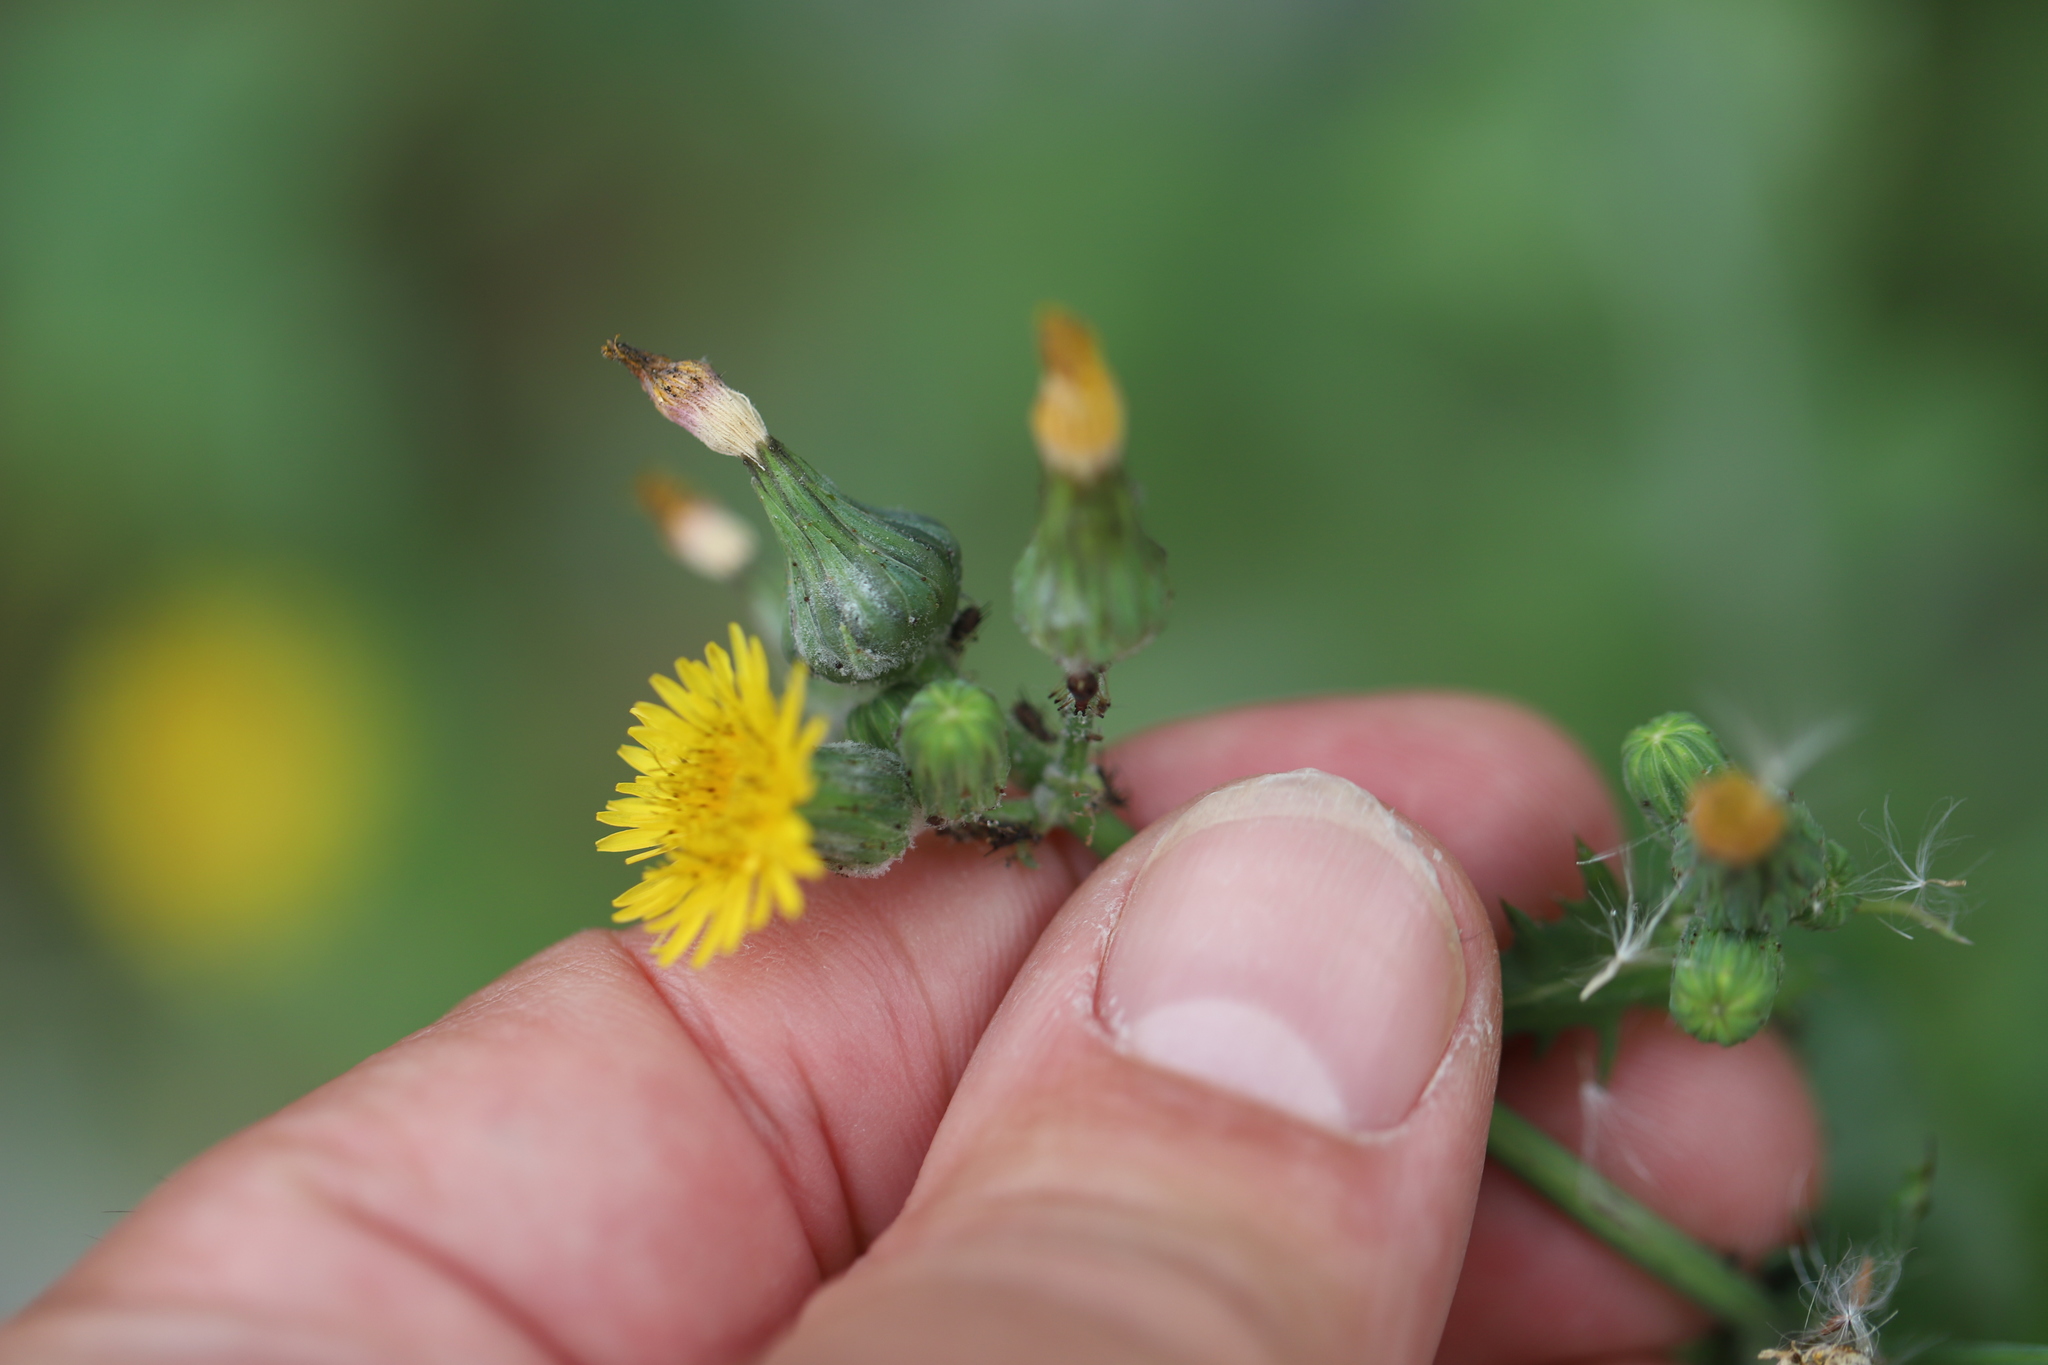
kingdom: Plantae
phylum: Tracheophyta
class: Magnoliopsida
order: Asterales
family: Asteraceae
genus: Sonchus
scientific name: Sonchus oleraceus
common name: Common sowthistle
